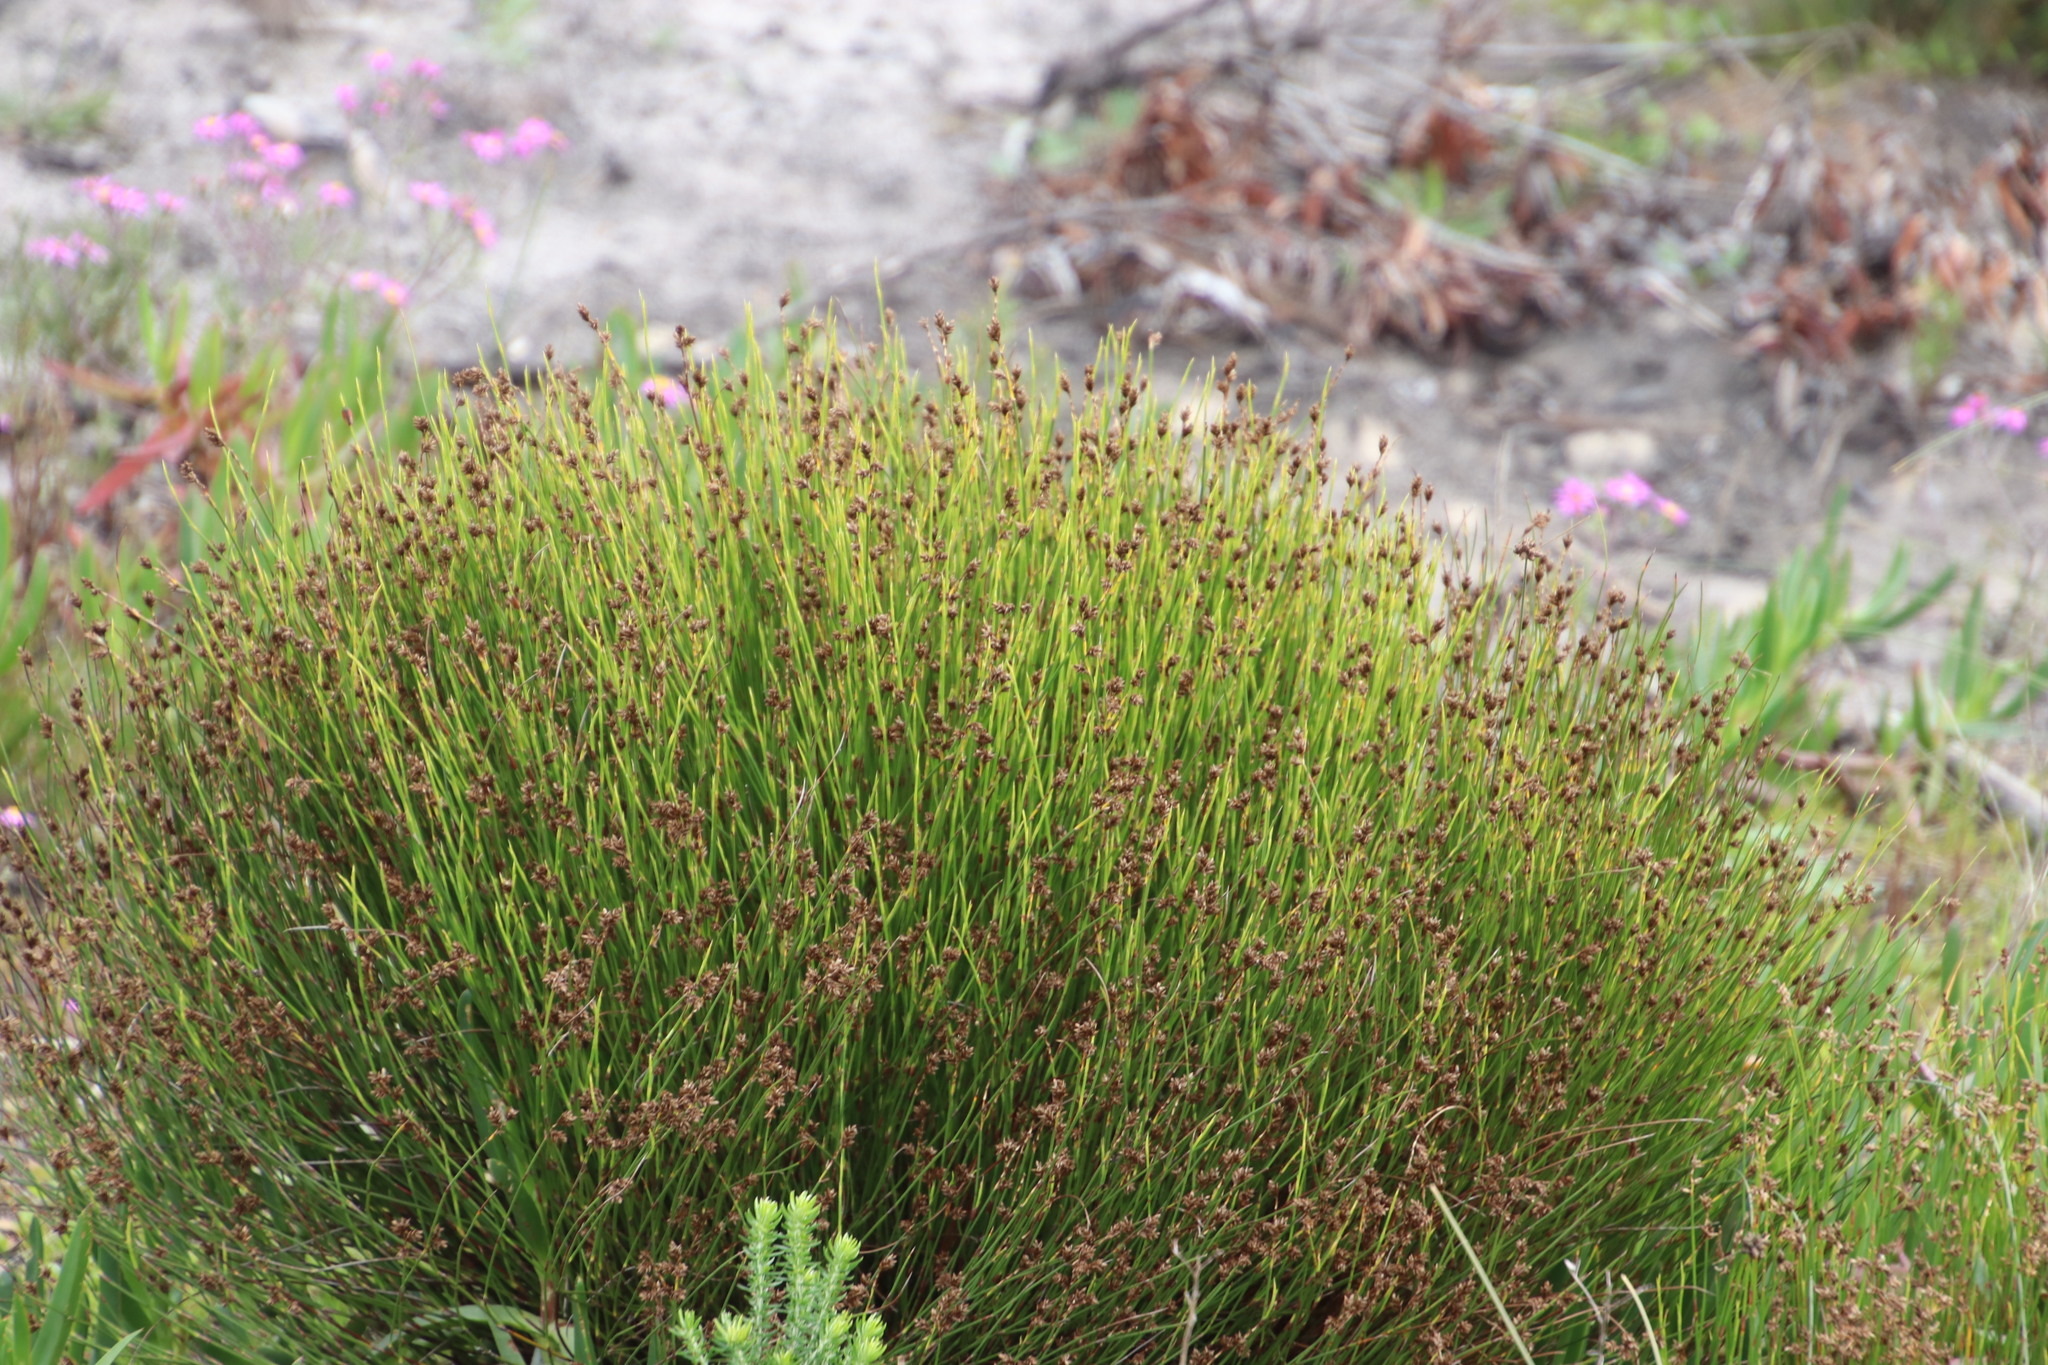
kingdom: Plantae
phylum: Tracheophyta
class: Liliopsida
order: Poales
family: Restionaceae
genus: Mastersiella
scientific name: Mastersiella digitata
